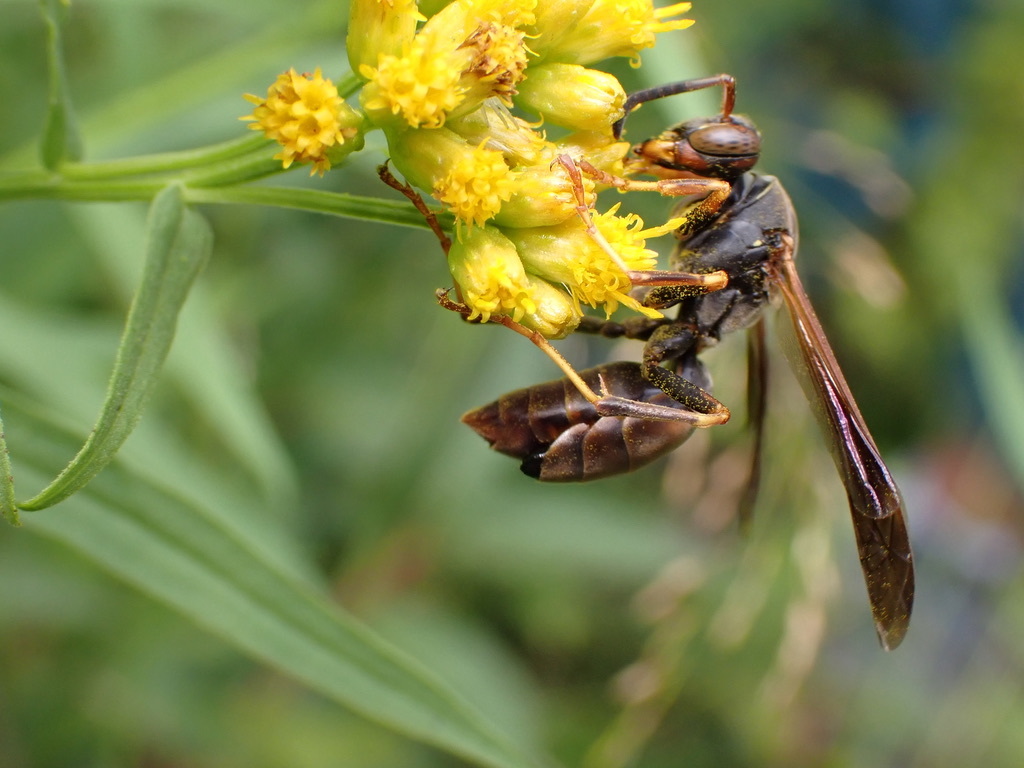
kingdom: Animalia
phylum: Arthropoda
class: Insecta
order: Hymenoptera
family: Eumenidae
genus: Polistes
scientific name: Polistes fuscatus
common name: Dark paper wasp
